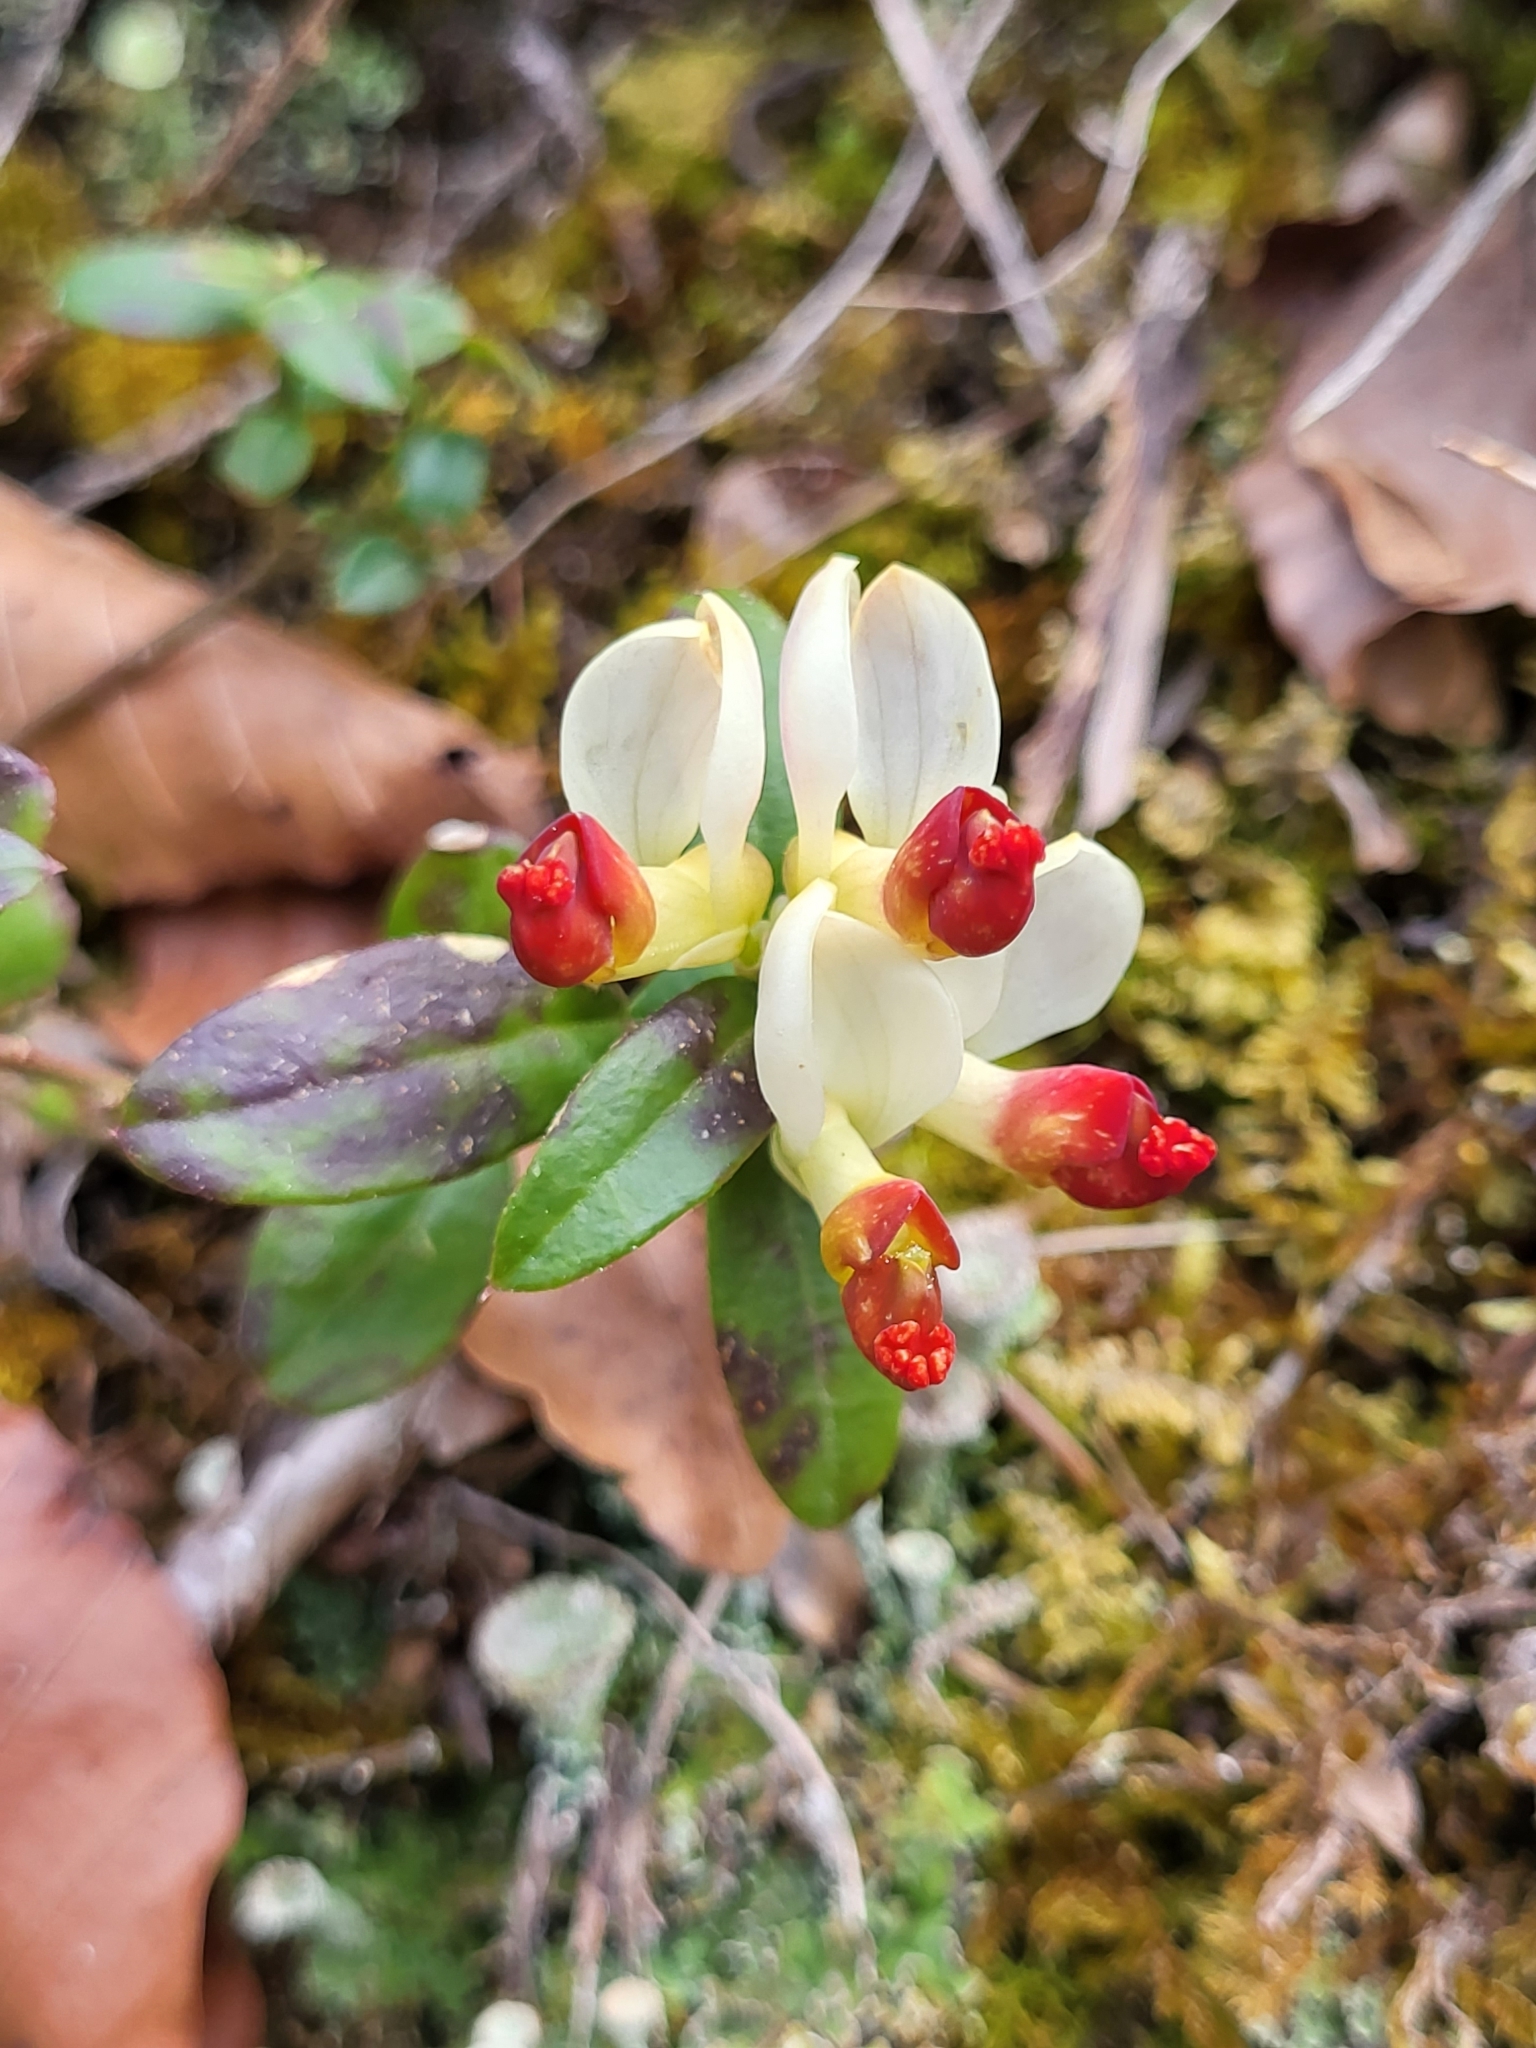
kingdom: Plantae
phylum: Tracheophyta
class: Magnoliopsida
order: Fabales
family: Polygalaceae
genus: Polygaloides
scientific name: Polygaloides chamaebuxus
